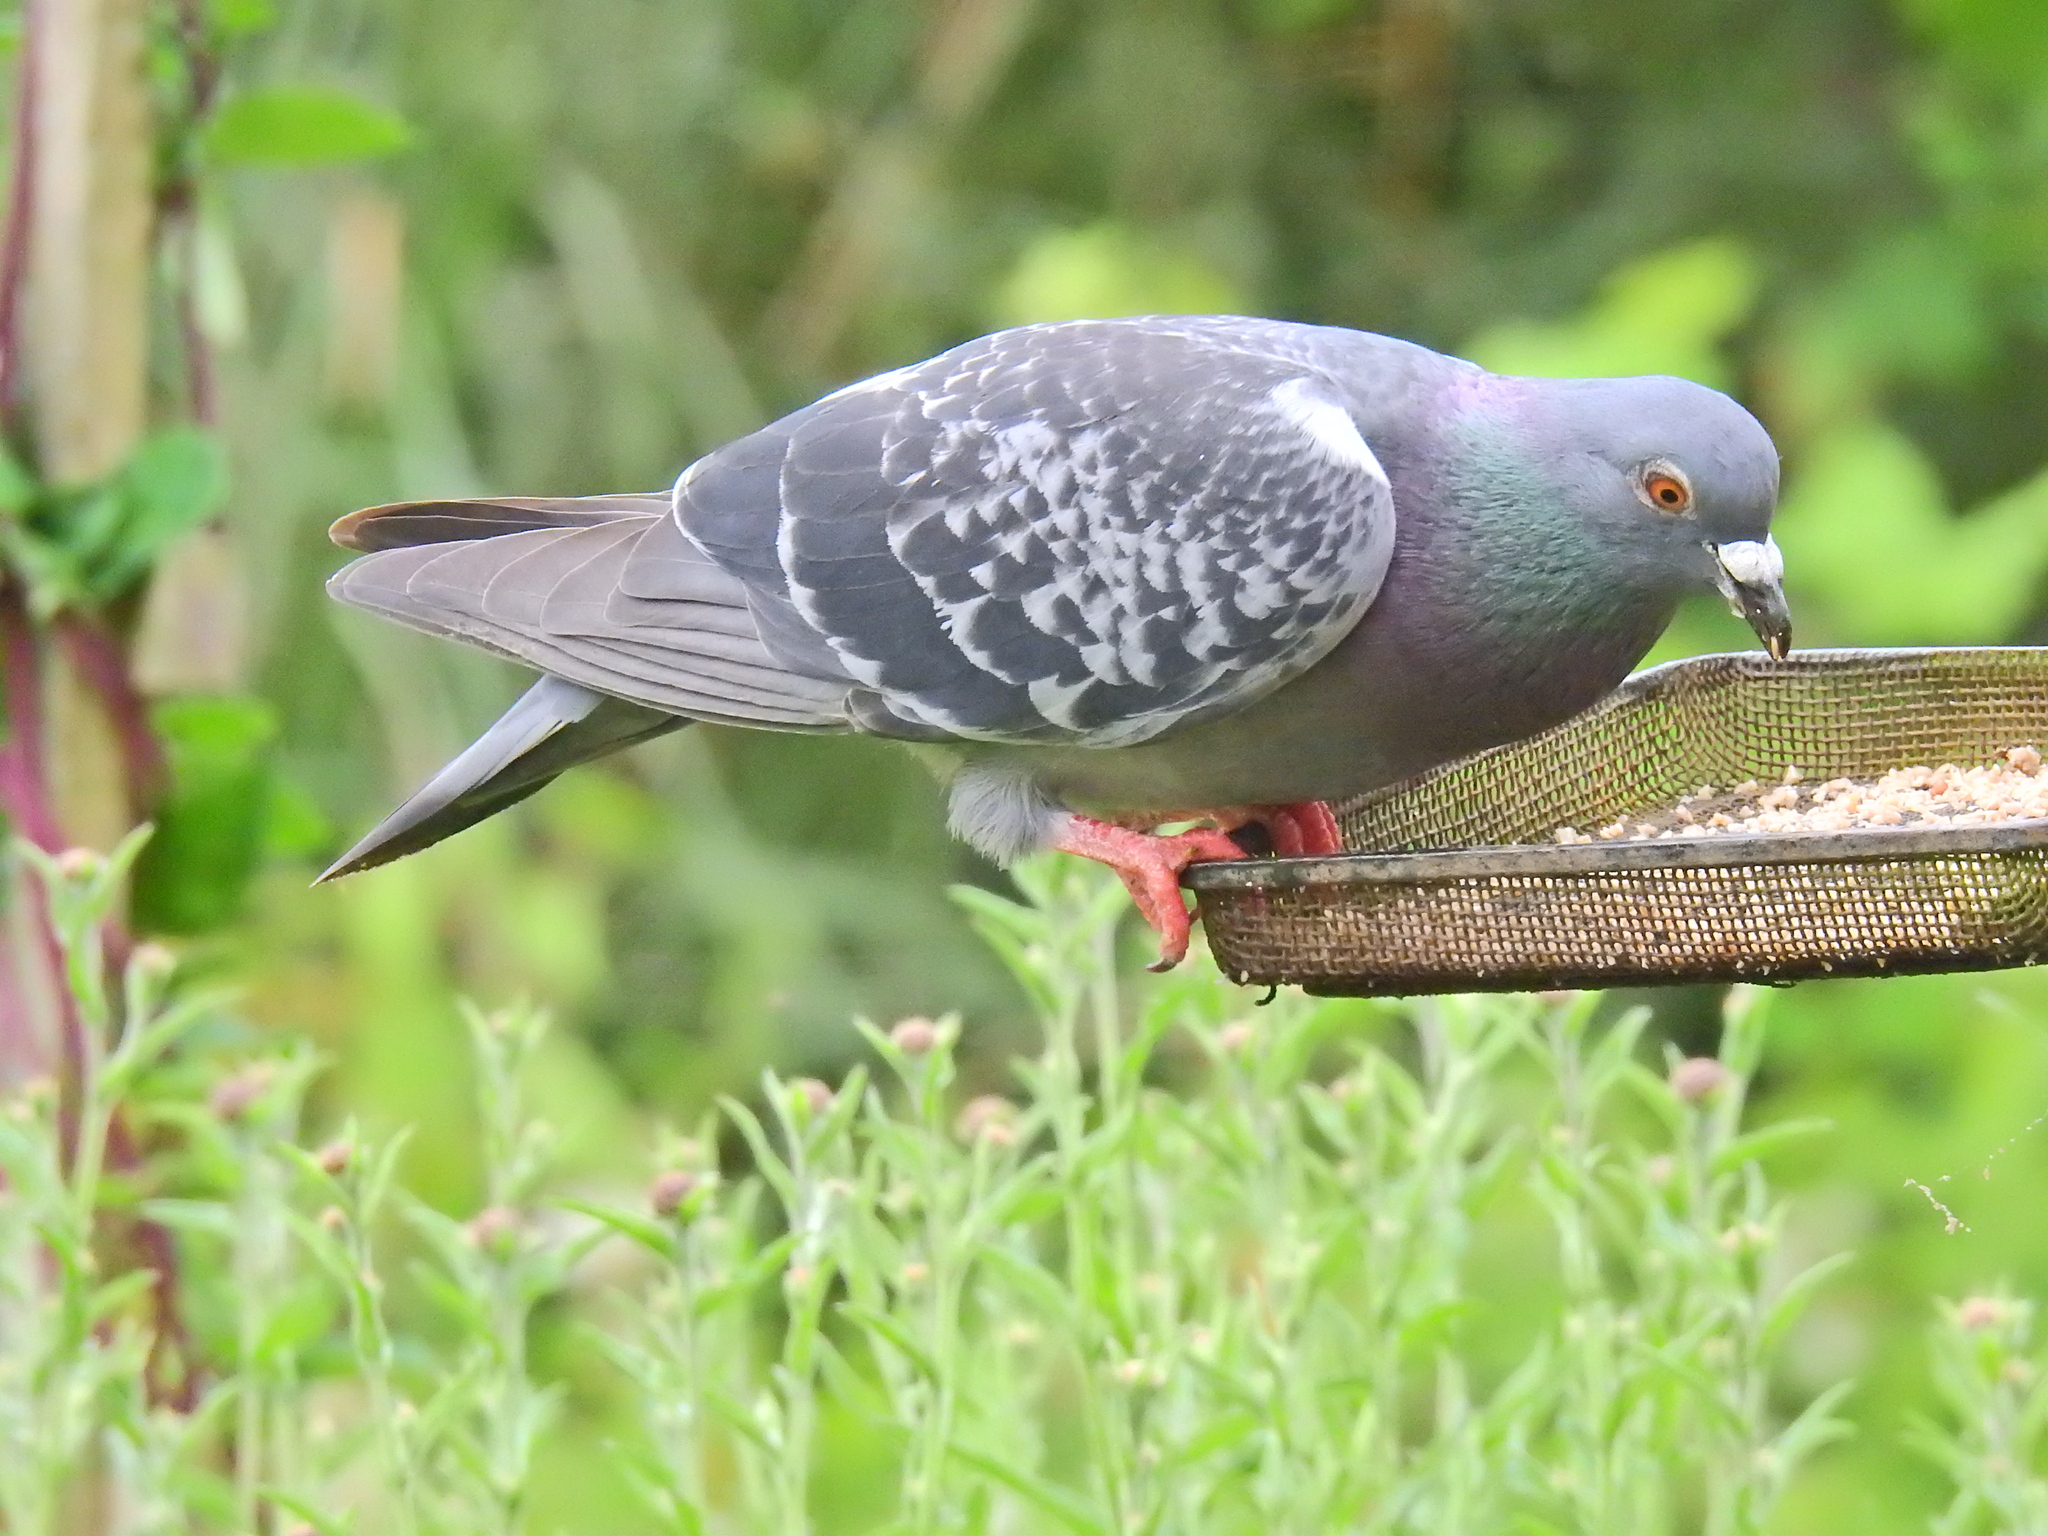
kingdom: Animalia
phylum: Chordata
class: Aves
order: Columbiformes
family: Columbidae
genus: Columba
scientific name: Columba livia
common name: Rock pigeon
